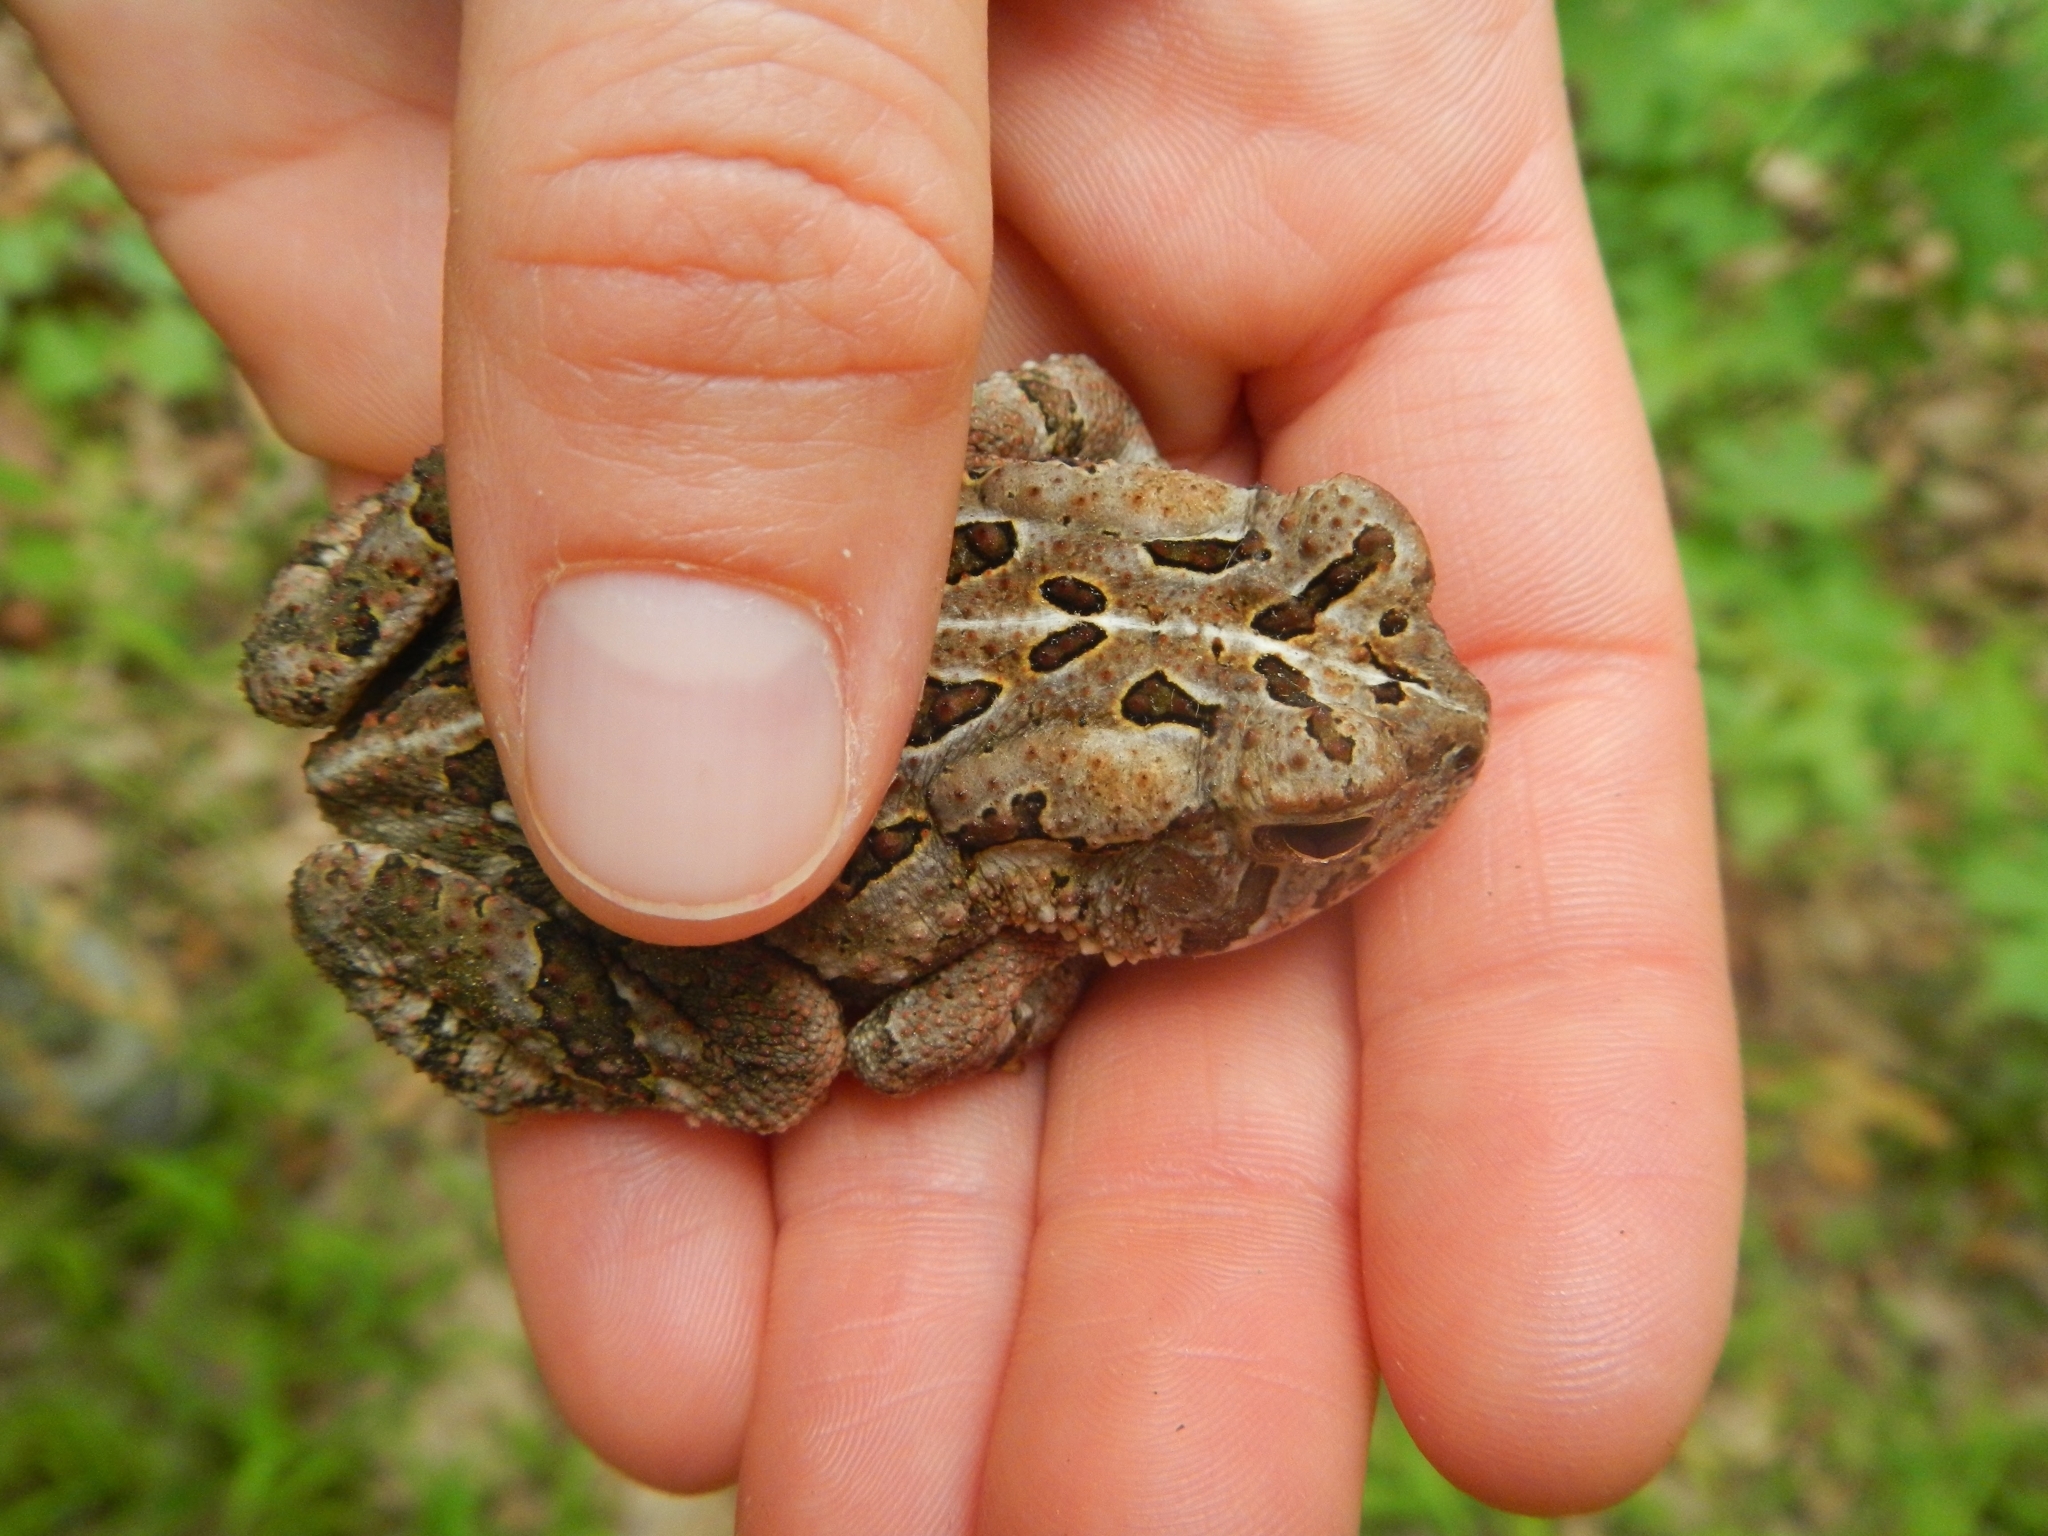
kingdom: Animalia
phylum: Chordata
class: Amphibia
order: Anura
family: Bufonidae
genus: Anaxyrus
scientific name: Anaxyrus fowleri
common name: Fowler's toad
